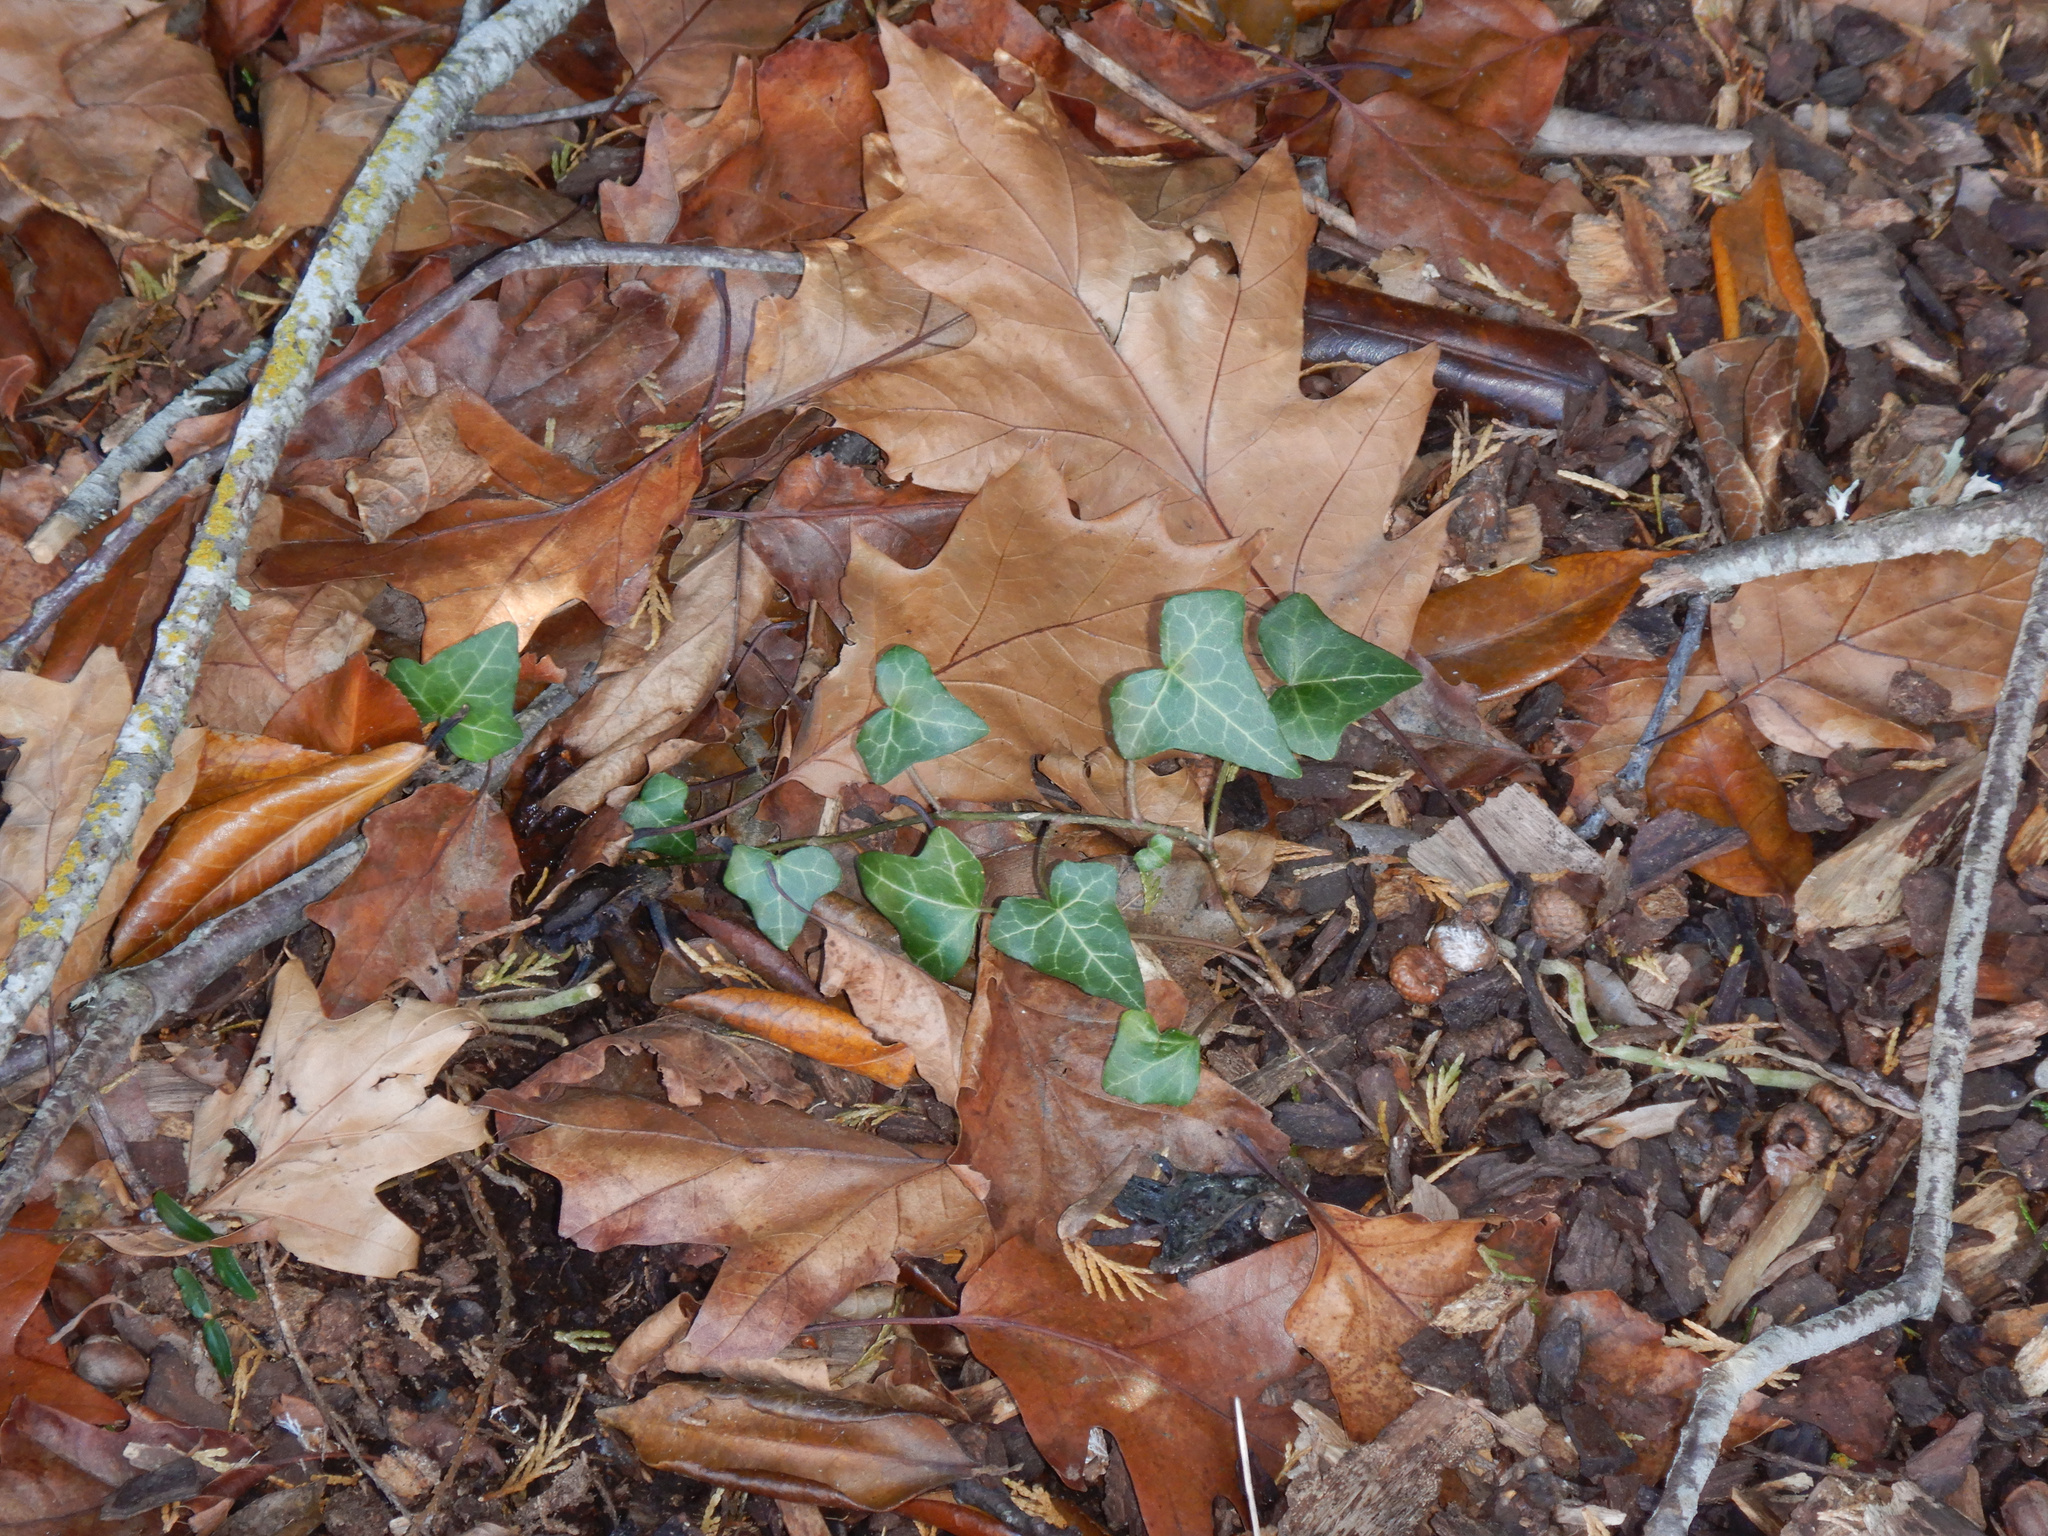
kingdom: Plantae
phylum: Tracheophyta
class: Magnoliopsida
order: Apiales
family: Araliaceae
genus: Hedera
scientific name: Hedera helix
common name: Ivy
